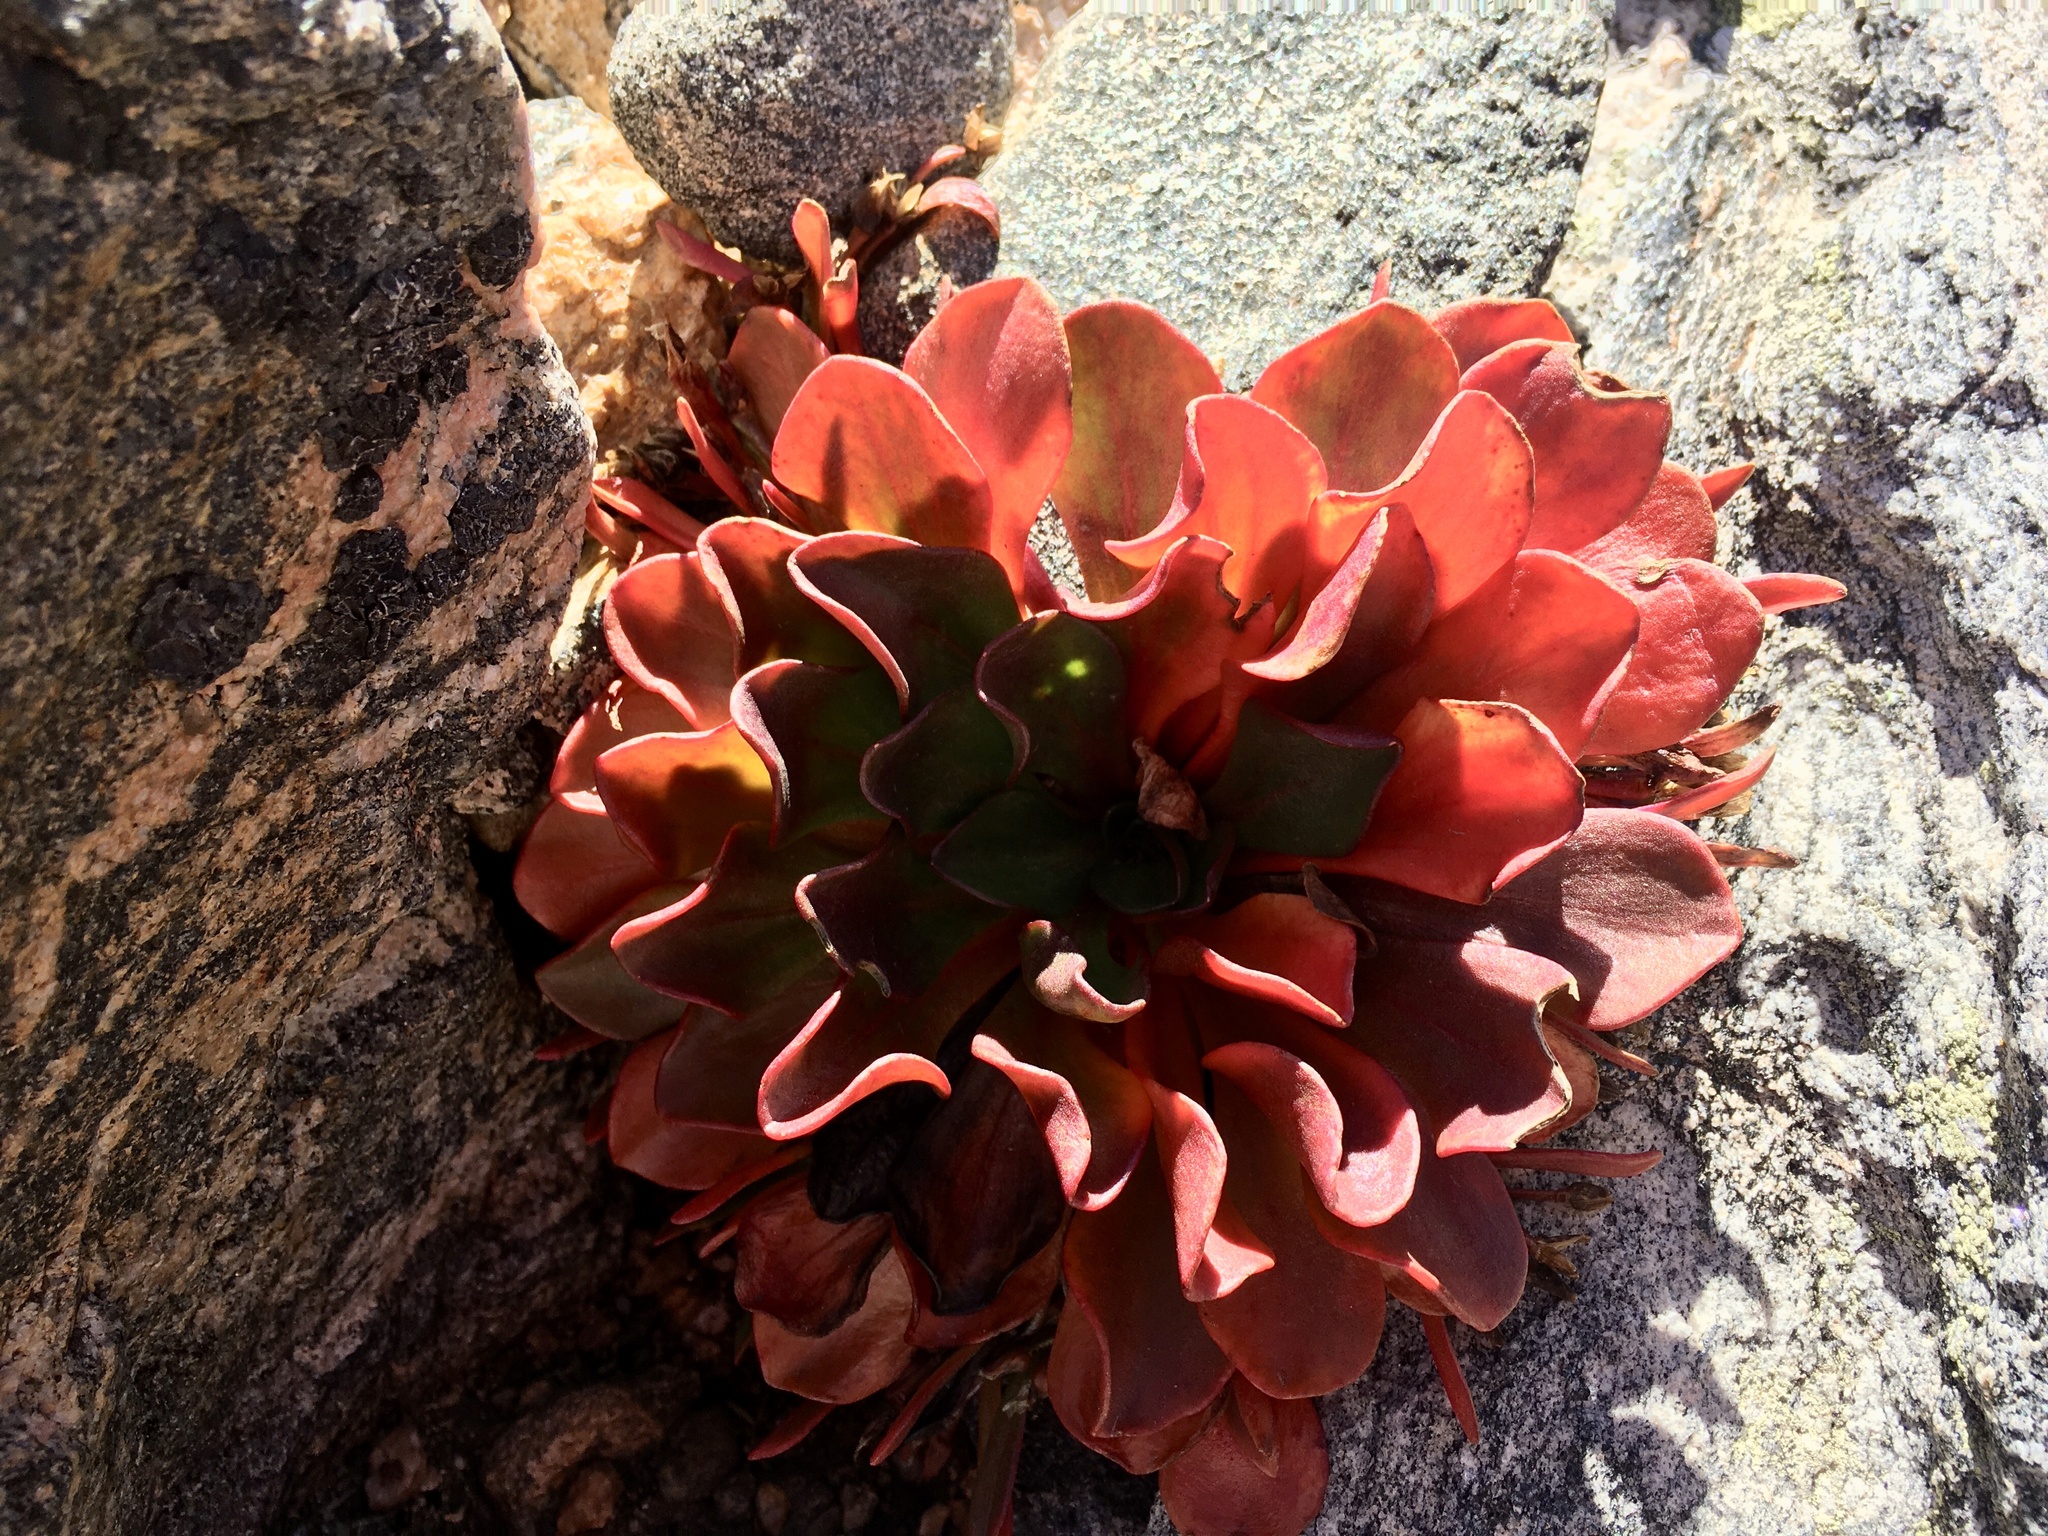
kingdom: Plantae
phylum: Tracheophyta
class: Magnoliopsida
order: Caryophyllales
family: Montiaceae
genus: Claytonia
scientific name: Claytonia megarhiza
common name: Alpine spring beauty
